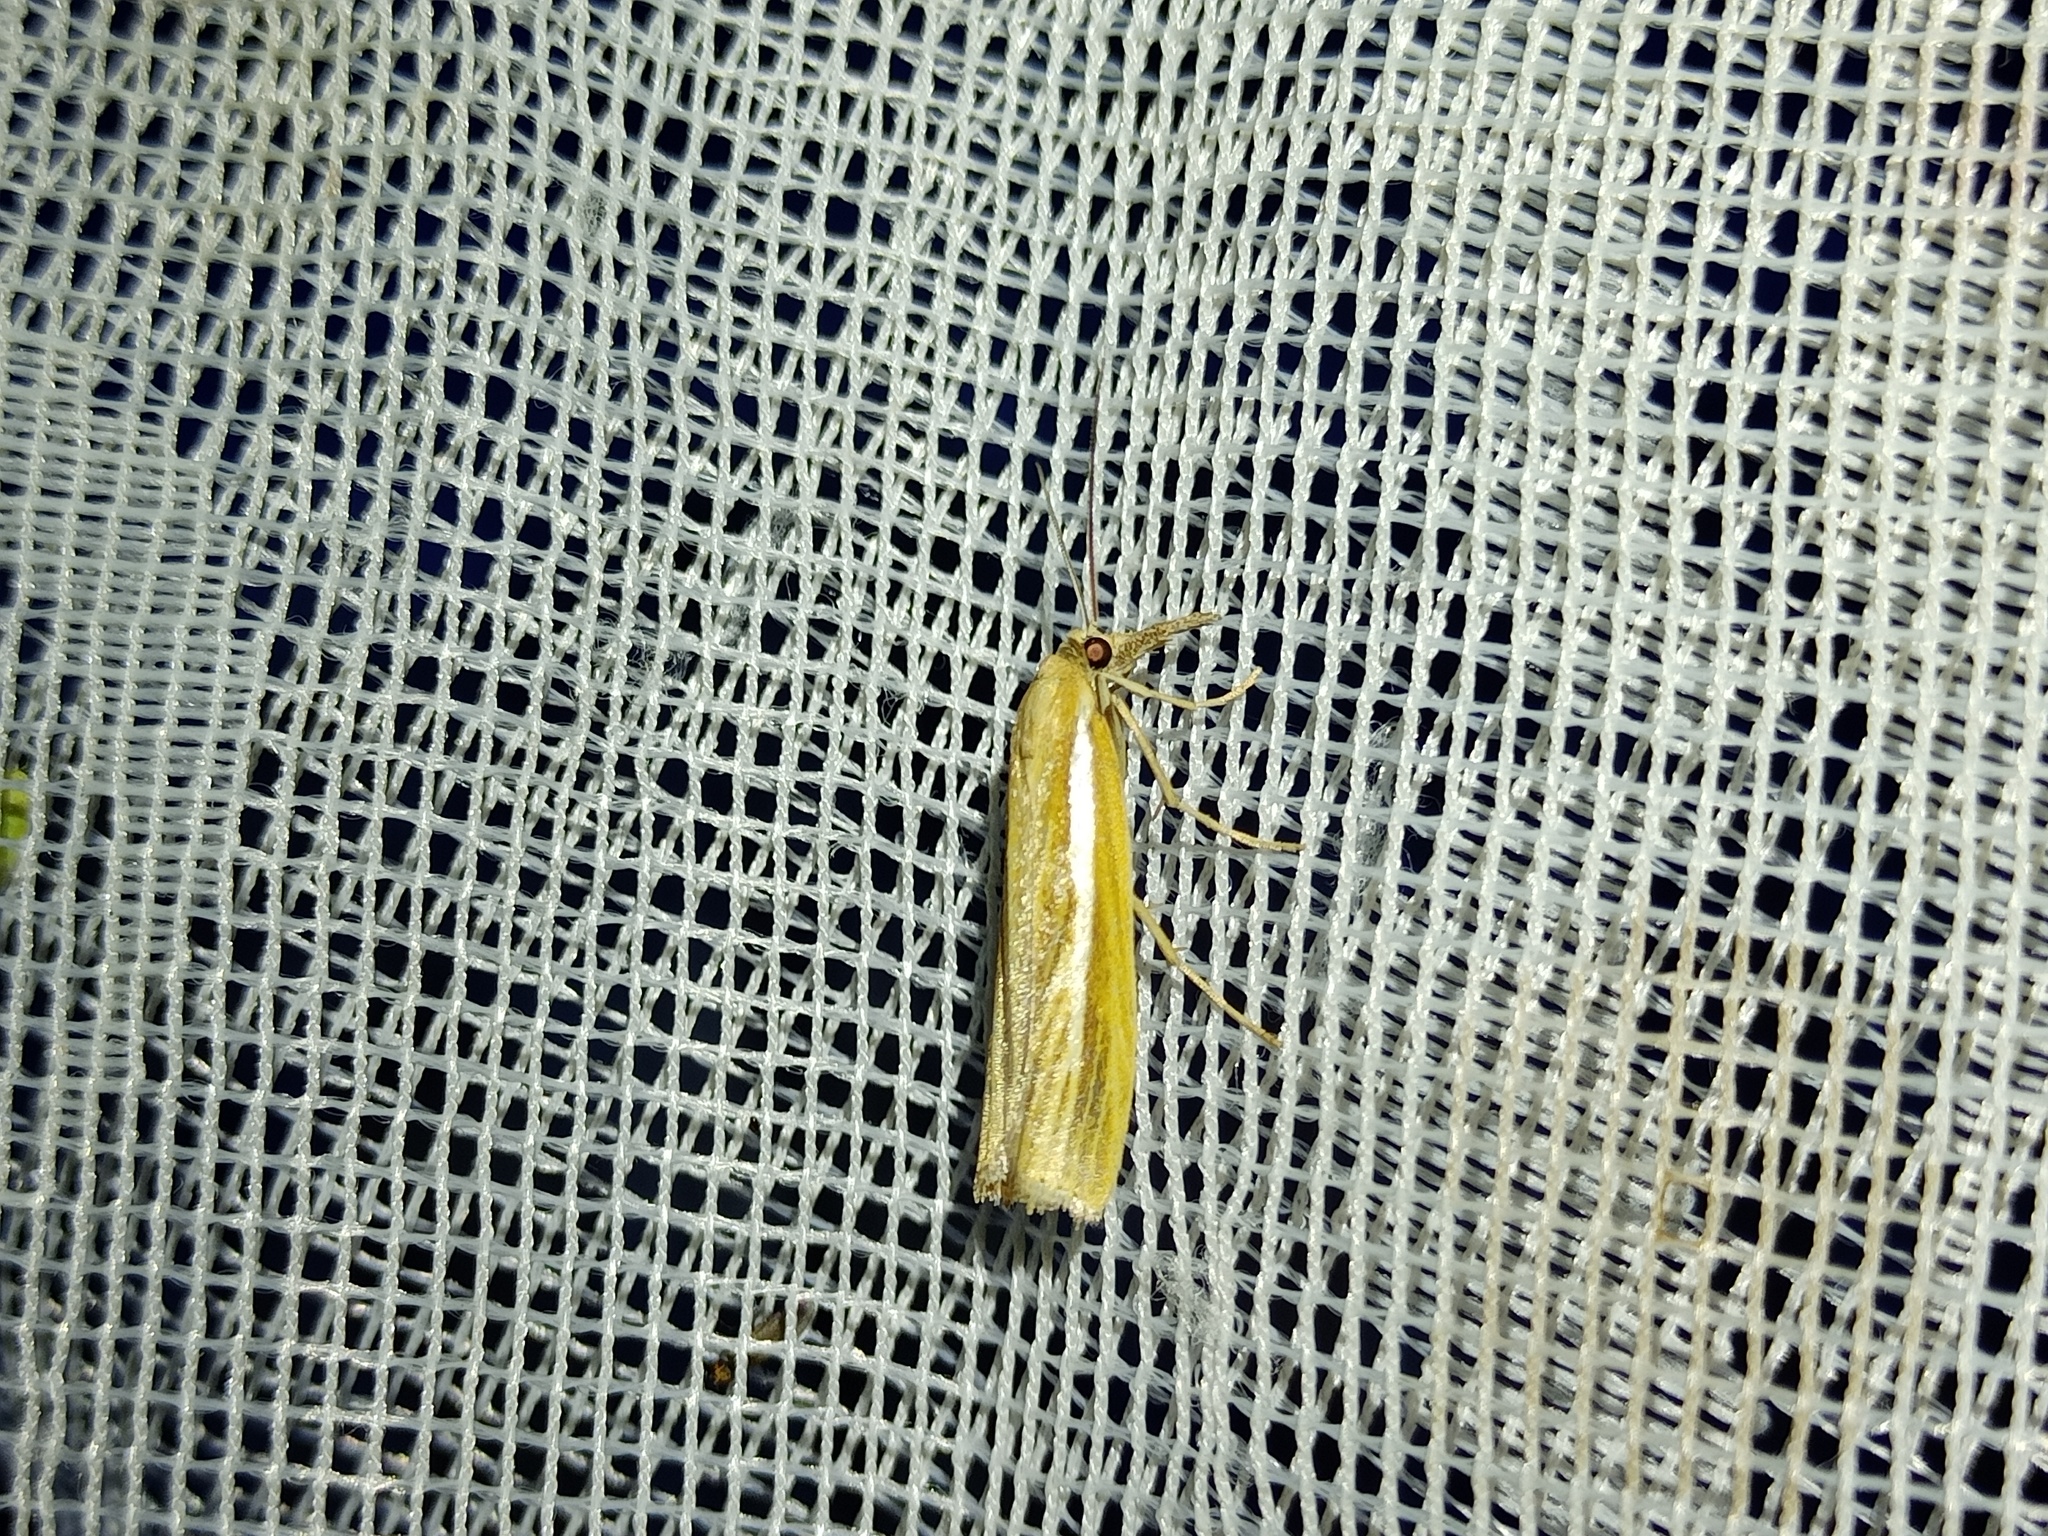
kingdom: Animalia
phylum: Arthropoda
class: Insecta
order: Lepidoptera
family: Crambidae
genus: Agriphila
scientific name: Agriphila tristellus
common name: Common grass-veneer
